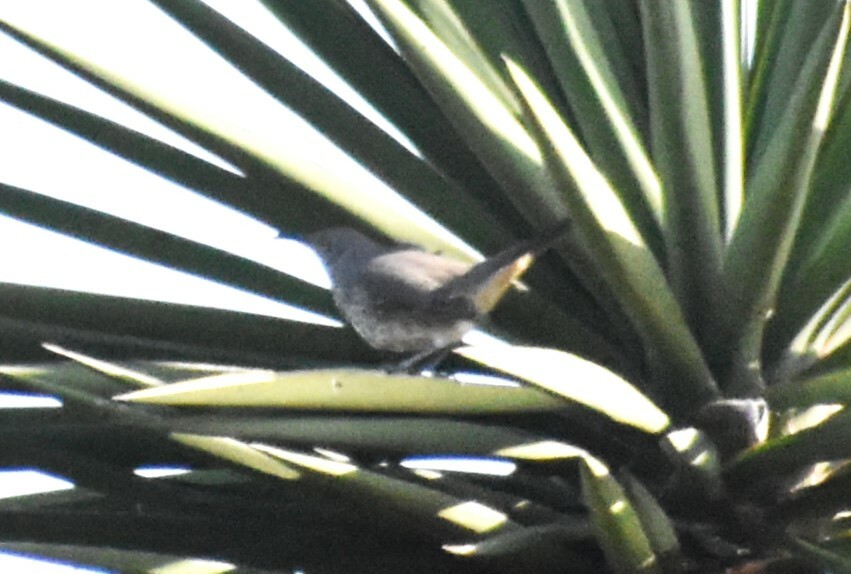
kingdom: Animalia
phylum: Chordata
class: Aves
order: Passeriformes
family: Mimidae
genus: Toxostoma
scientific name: Toxostoma curvirostre
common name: Curve-billed thrasher
